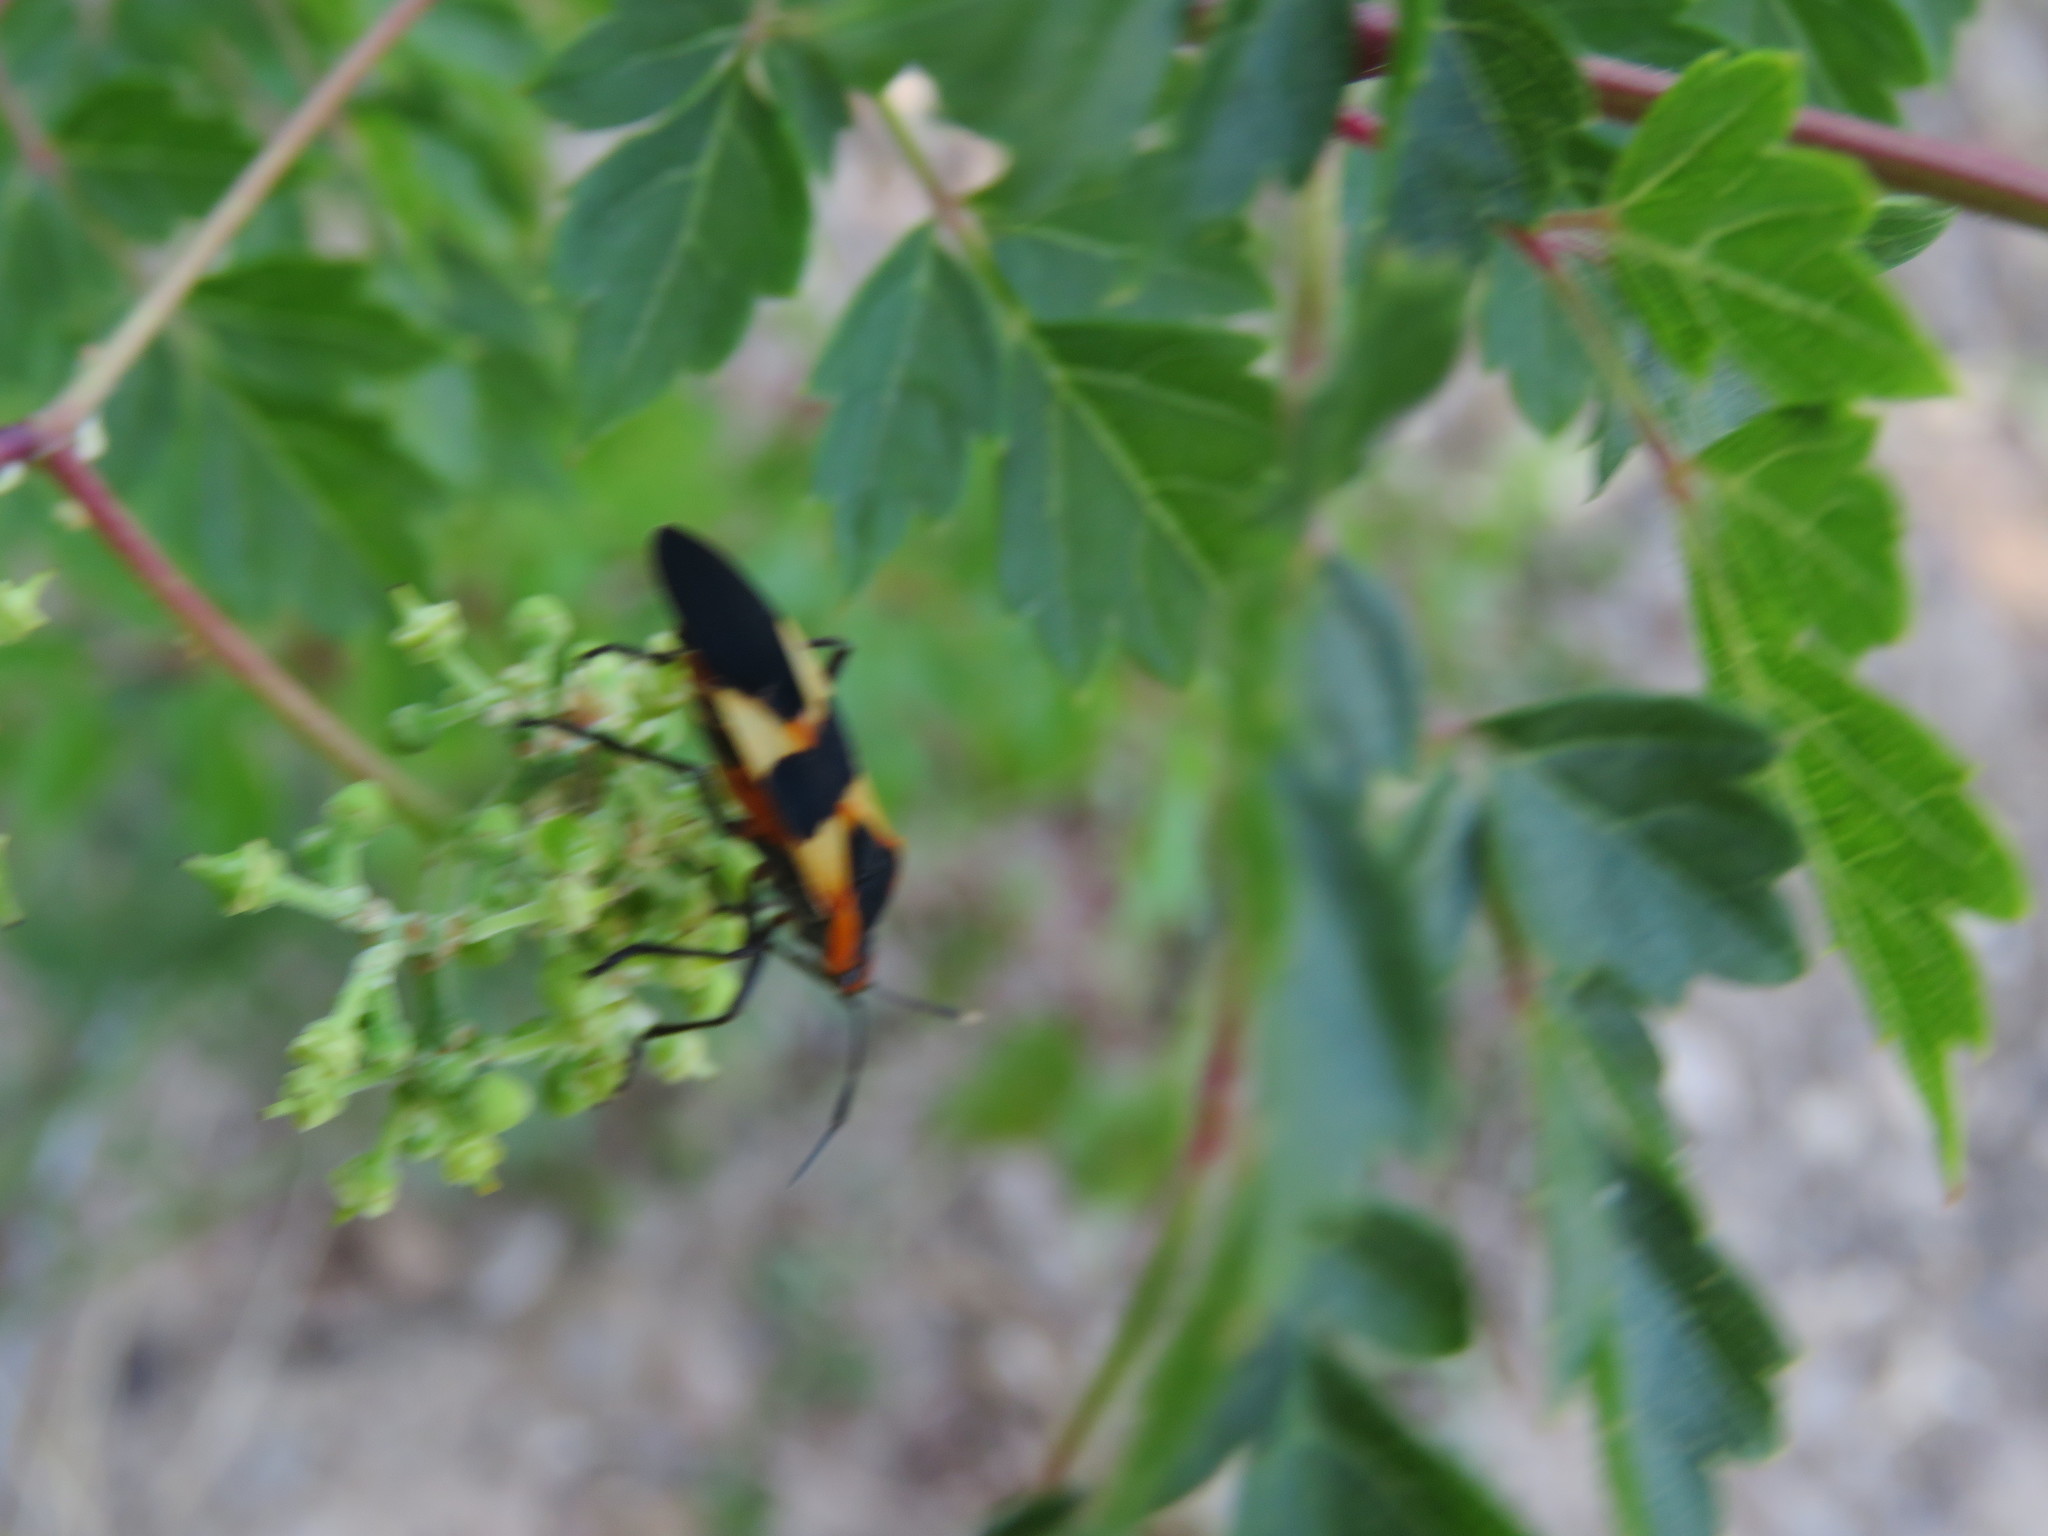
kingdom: Animalia
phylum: Arthropoda
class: Insecta
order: Hemiptera
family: Lygaeidae
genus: Oncopeltus
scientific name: Oncopeltus fasciatus
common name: Large milkweed bug
